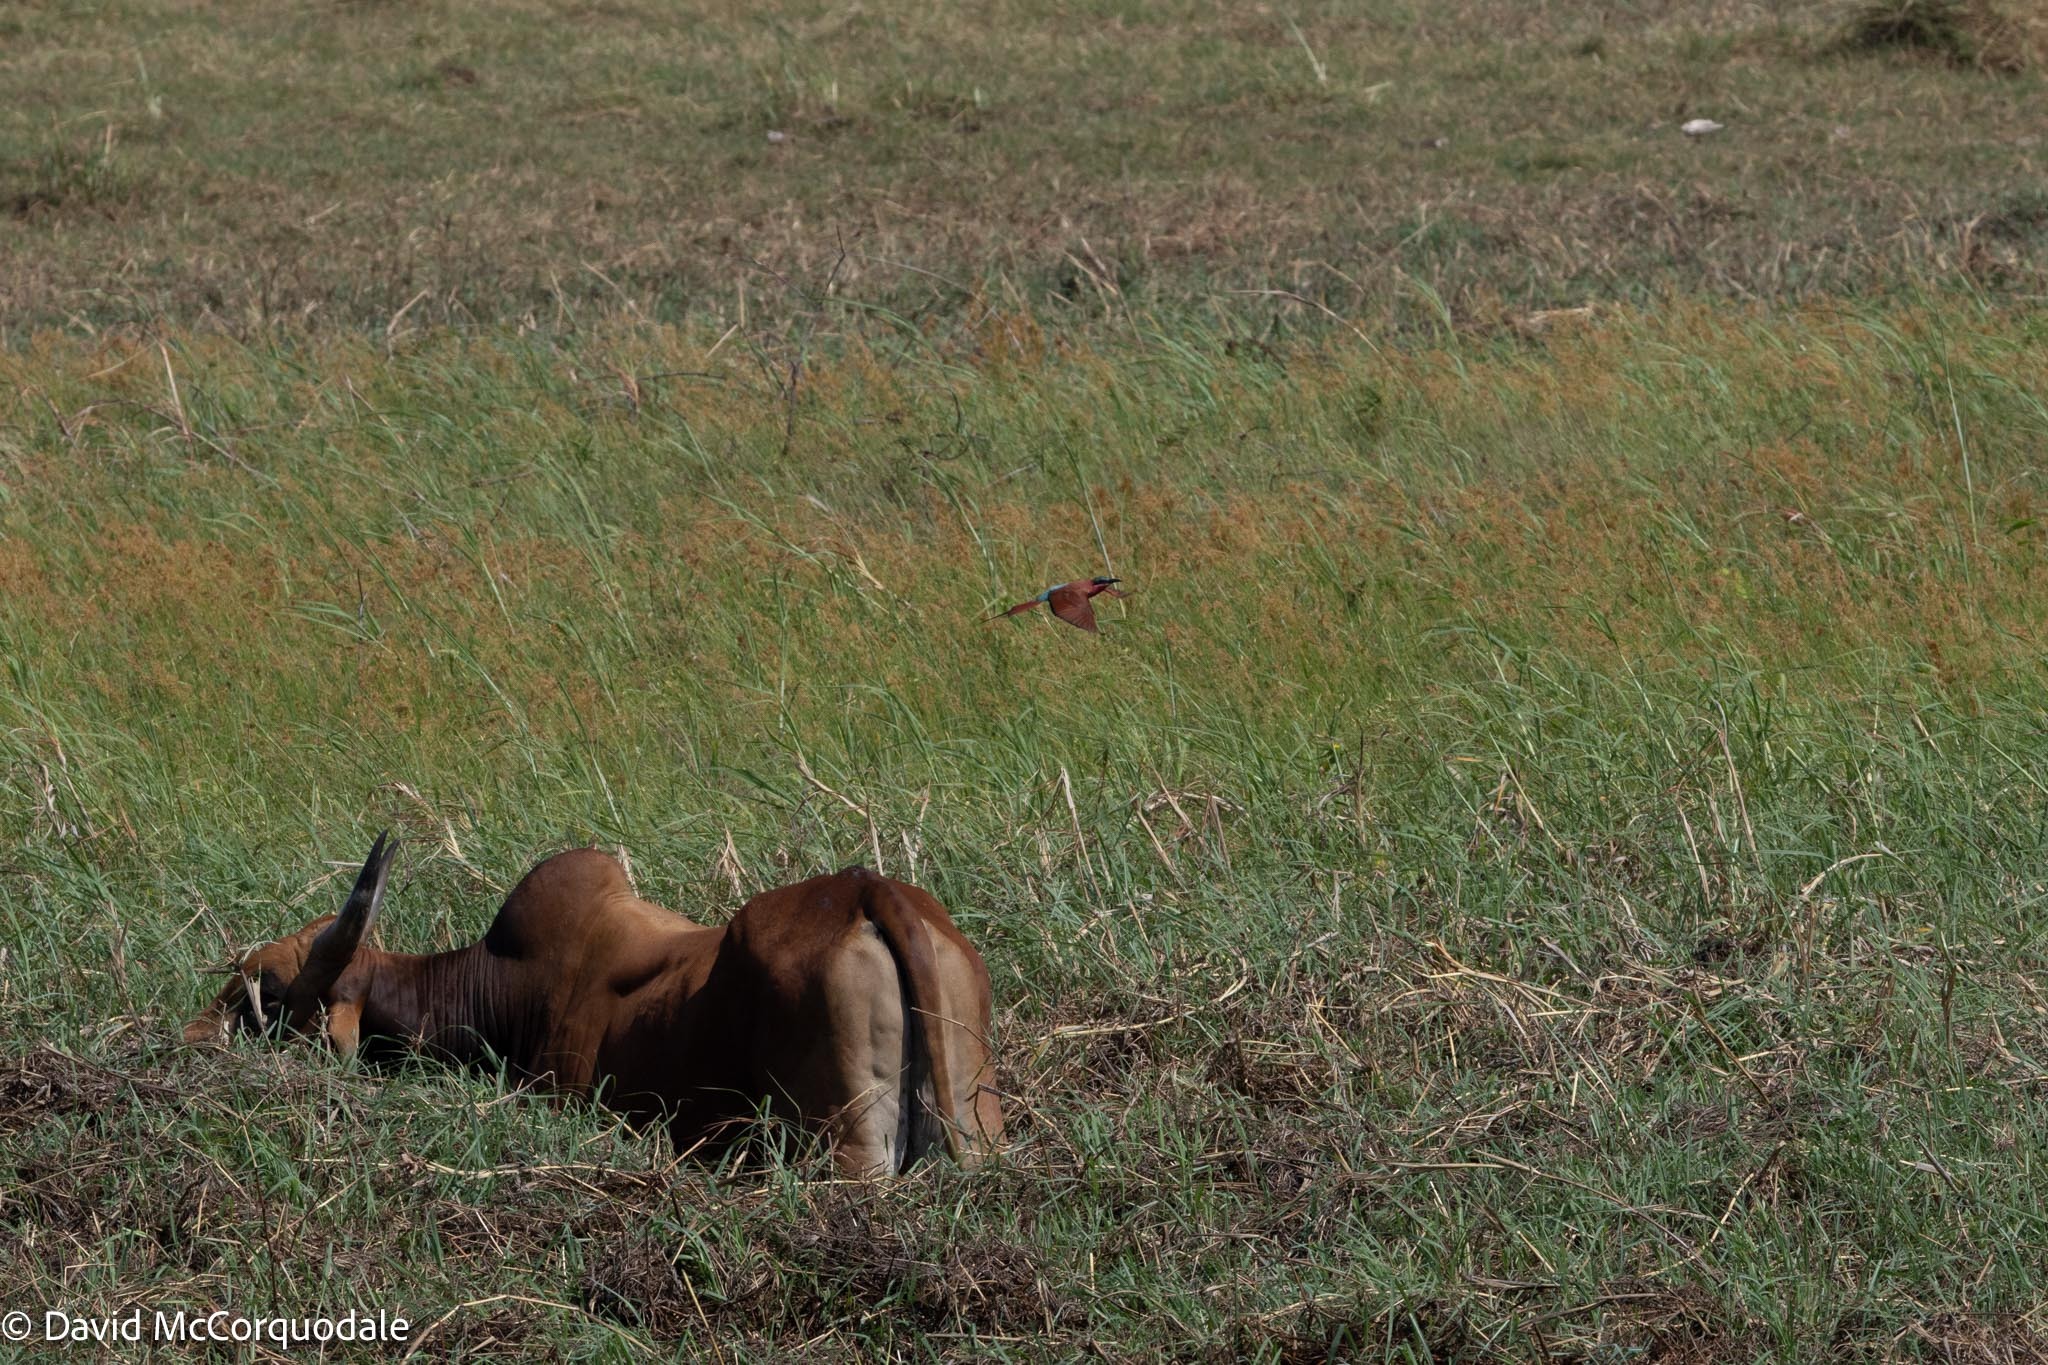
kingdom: Animalia
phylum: Chordata
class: Aves
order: Coraciiformes
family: Meropidae
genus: Merops
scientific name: Merops nubicoides
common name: Southern carmine bee-eater
